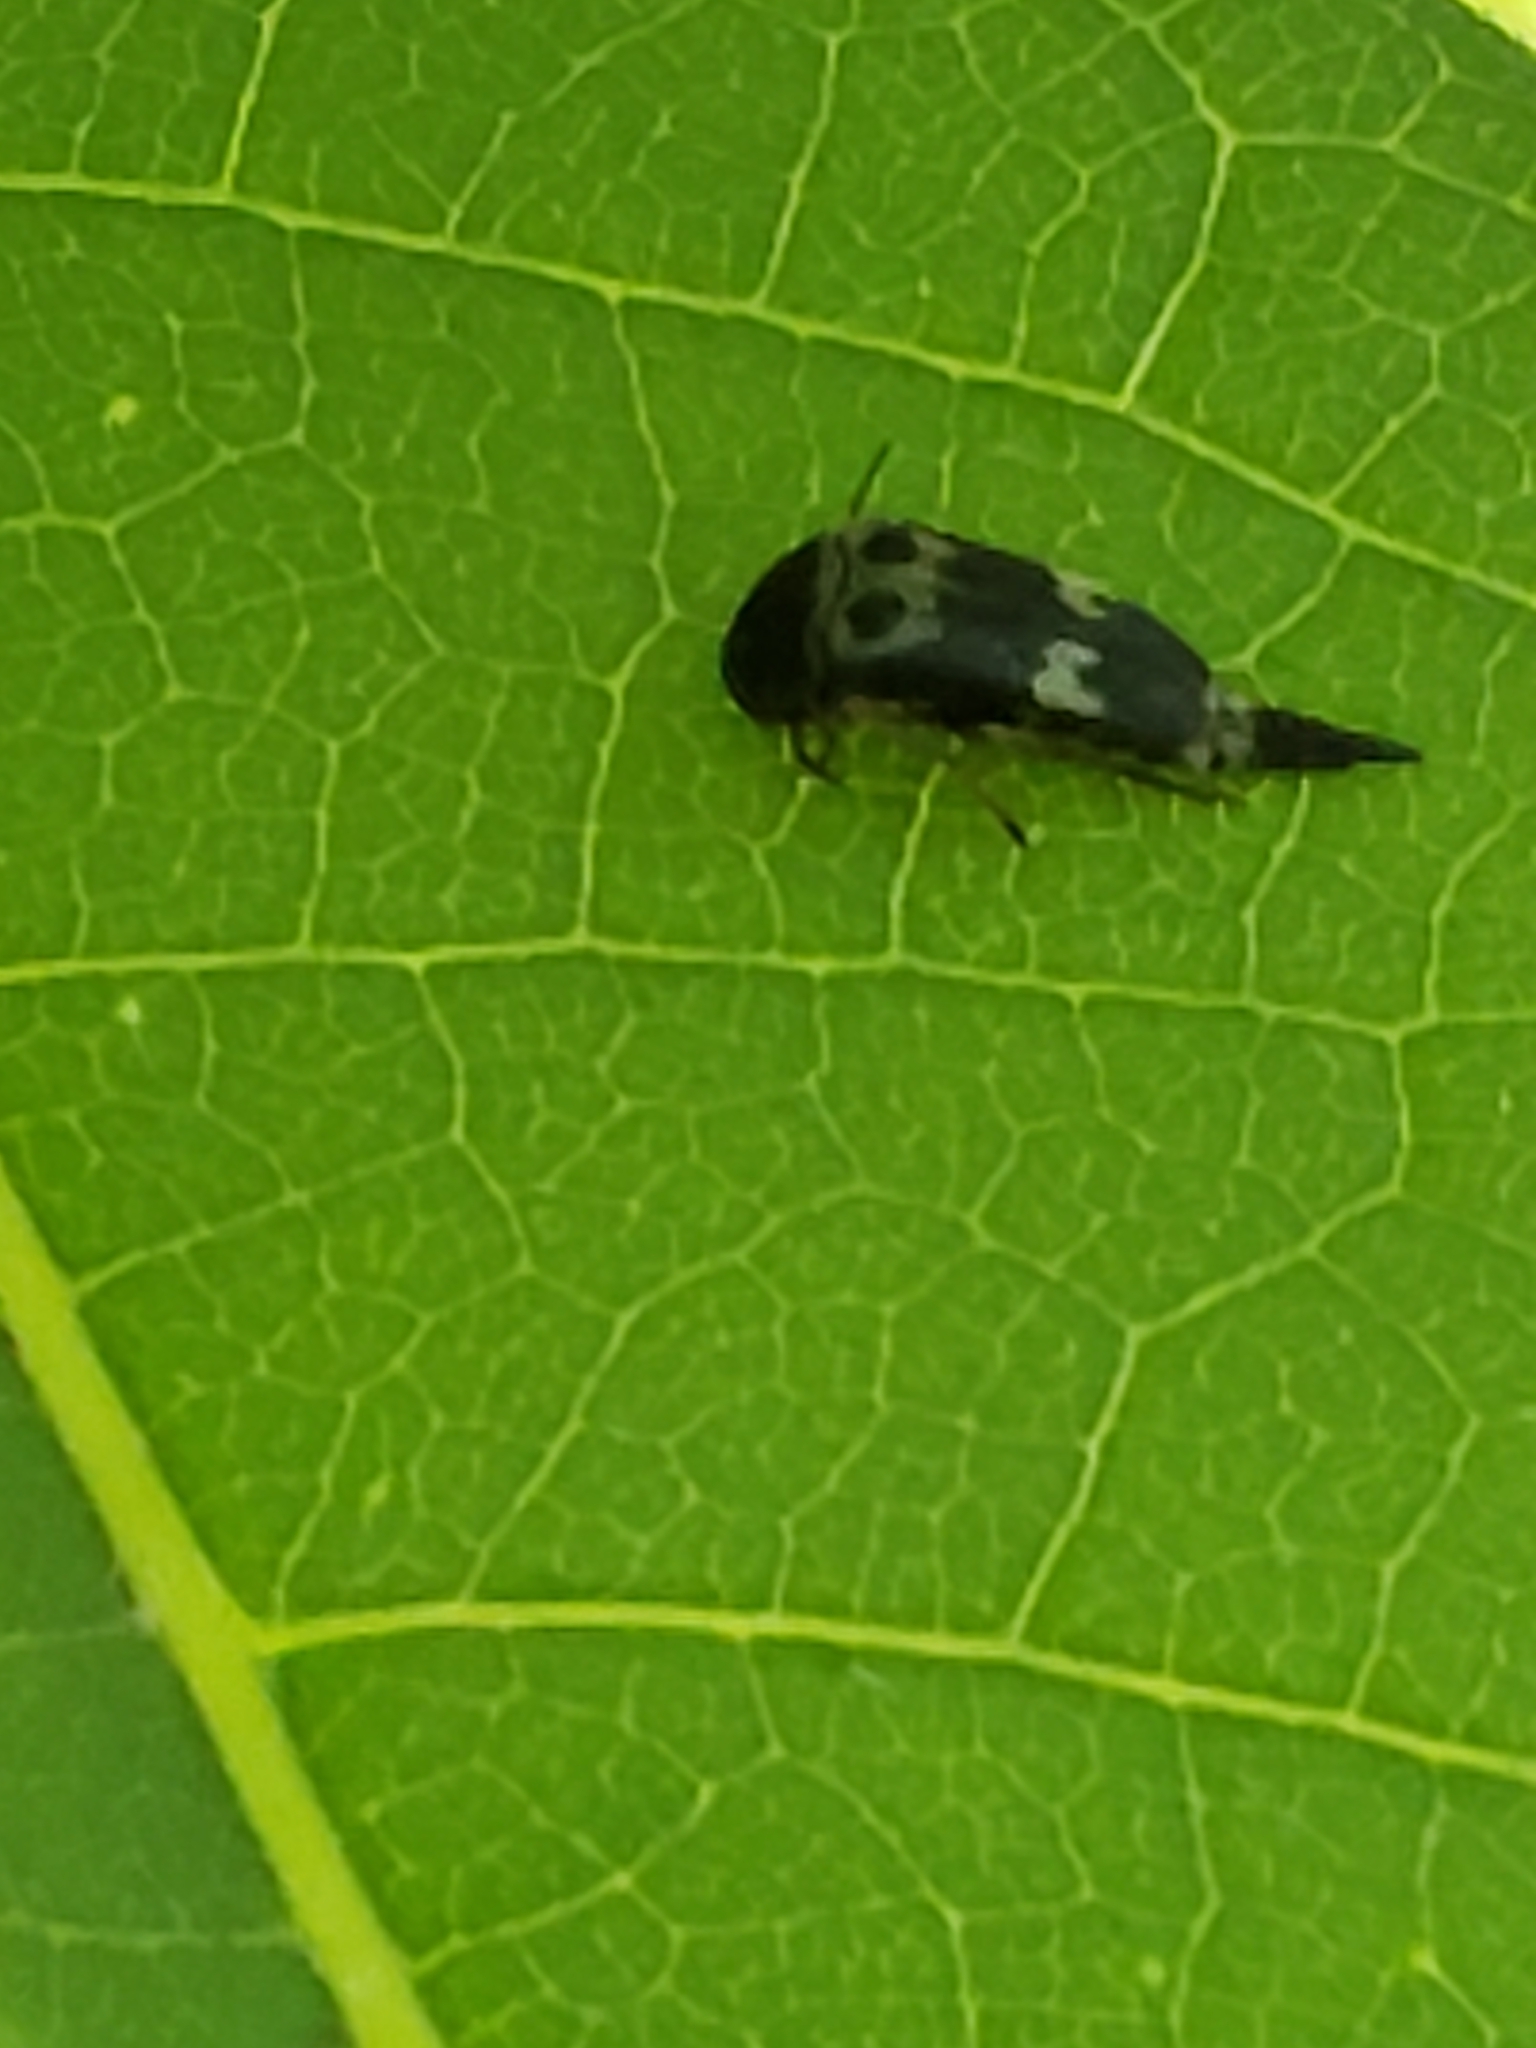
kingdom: Animalia
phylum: Arthropoda
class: Insecta
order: Coleoptera
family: Mordellidae
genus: Glipa
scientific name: Glipa oculata
